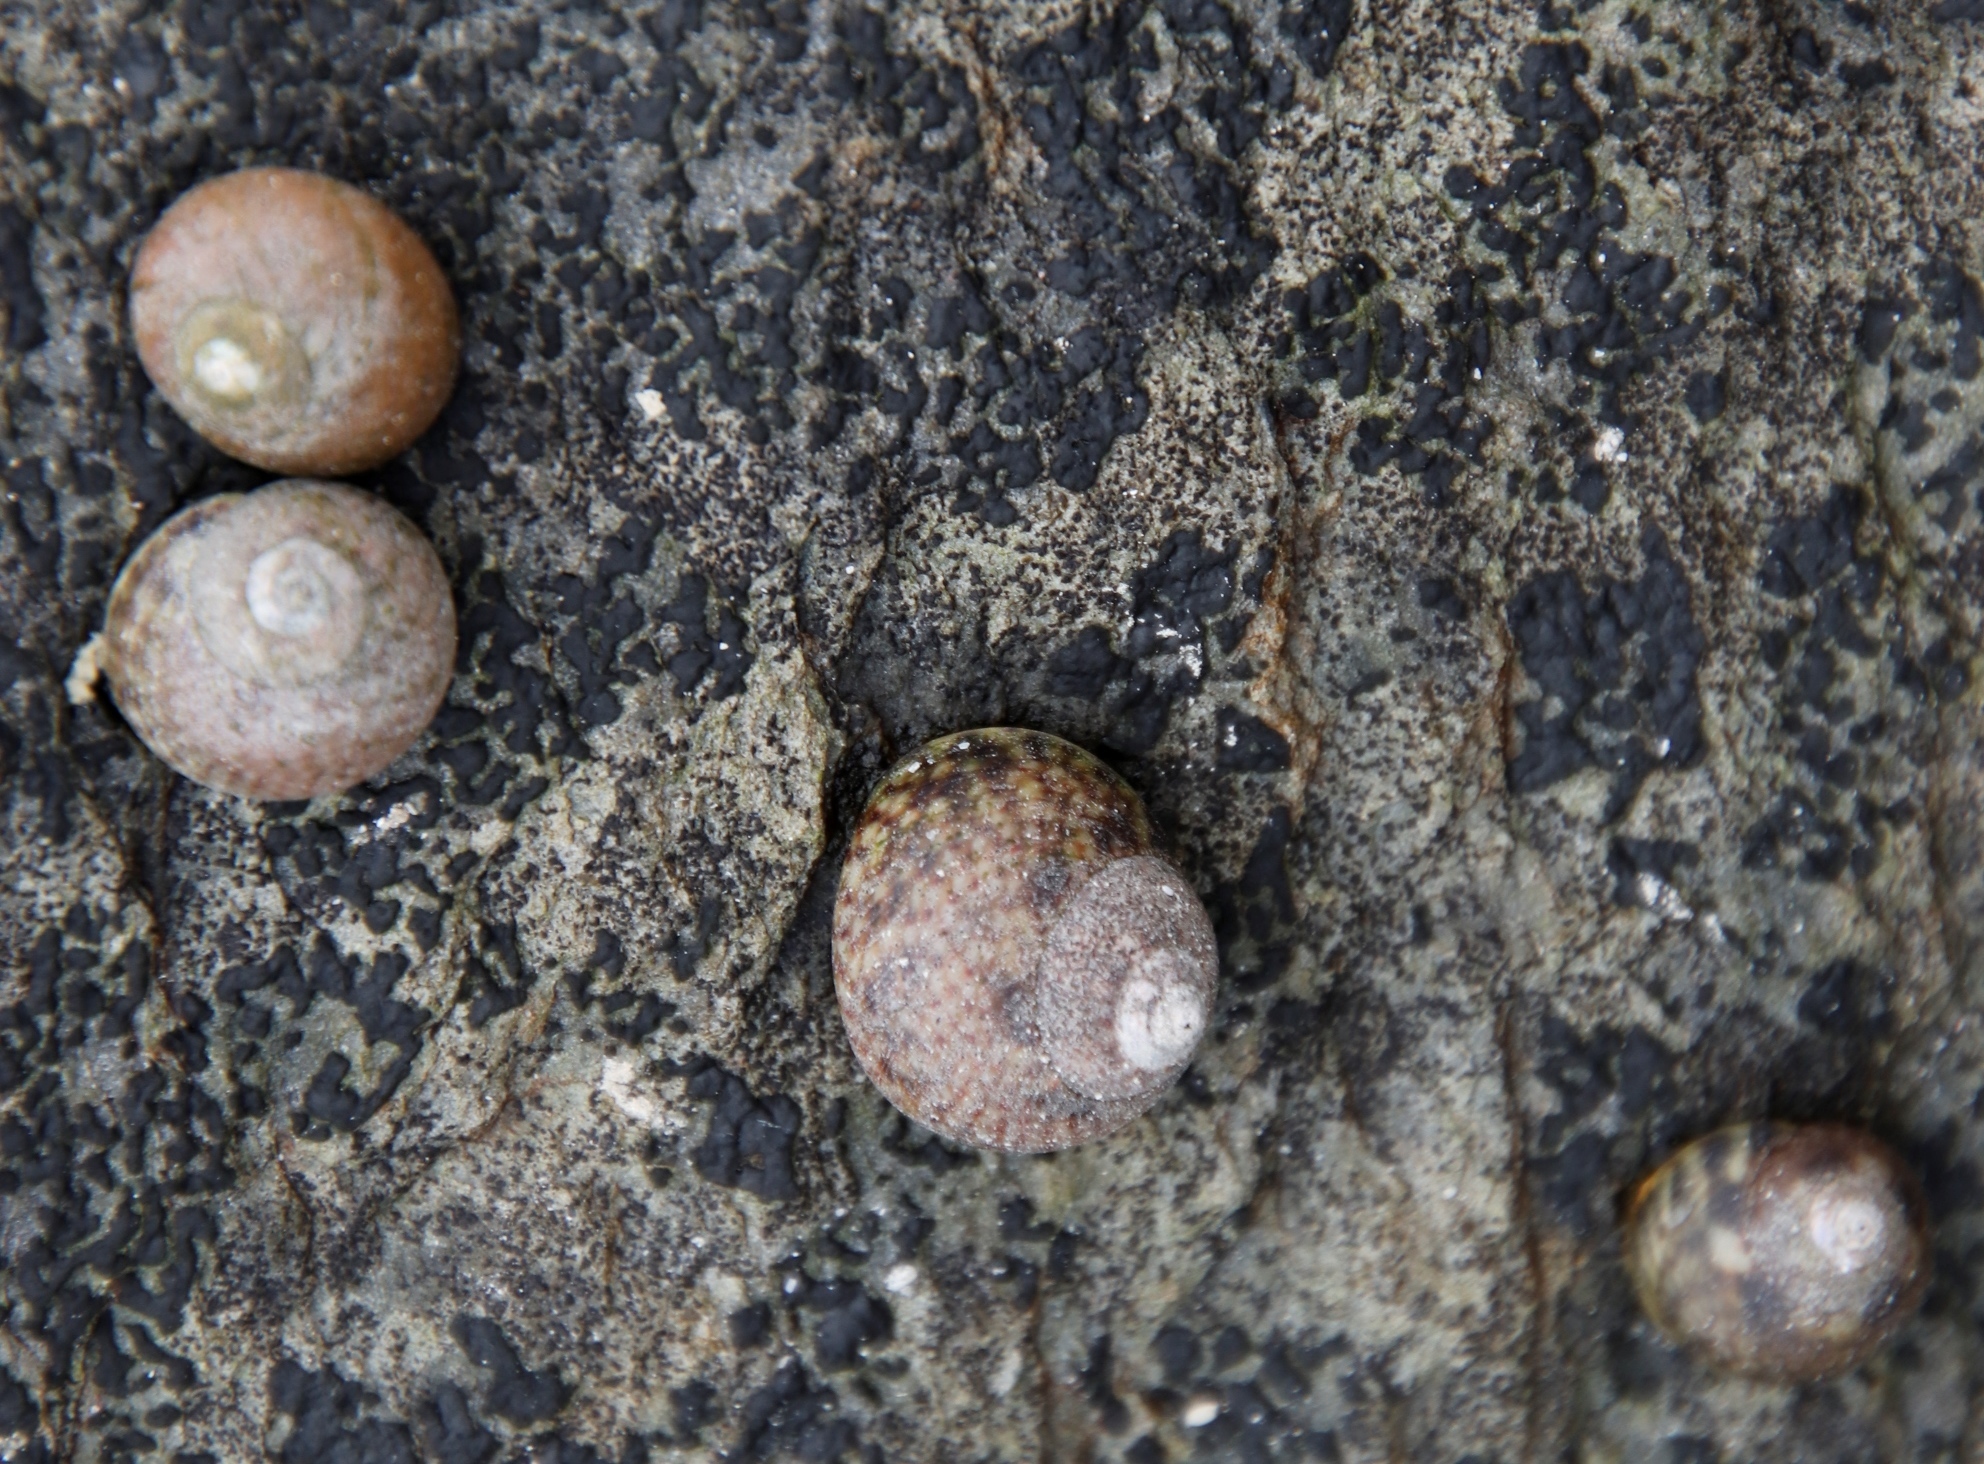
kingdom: Animalia
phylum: Mollusca
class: Gastropoda
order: Trochida
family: Trochidae
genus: Oxystele
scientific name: Oxystele impervia
